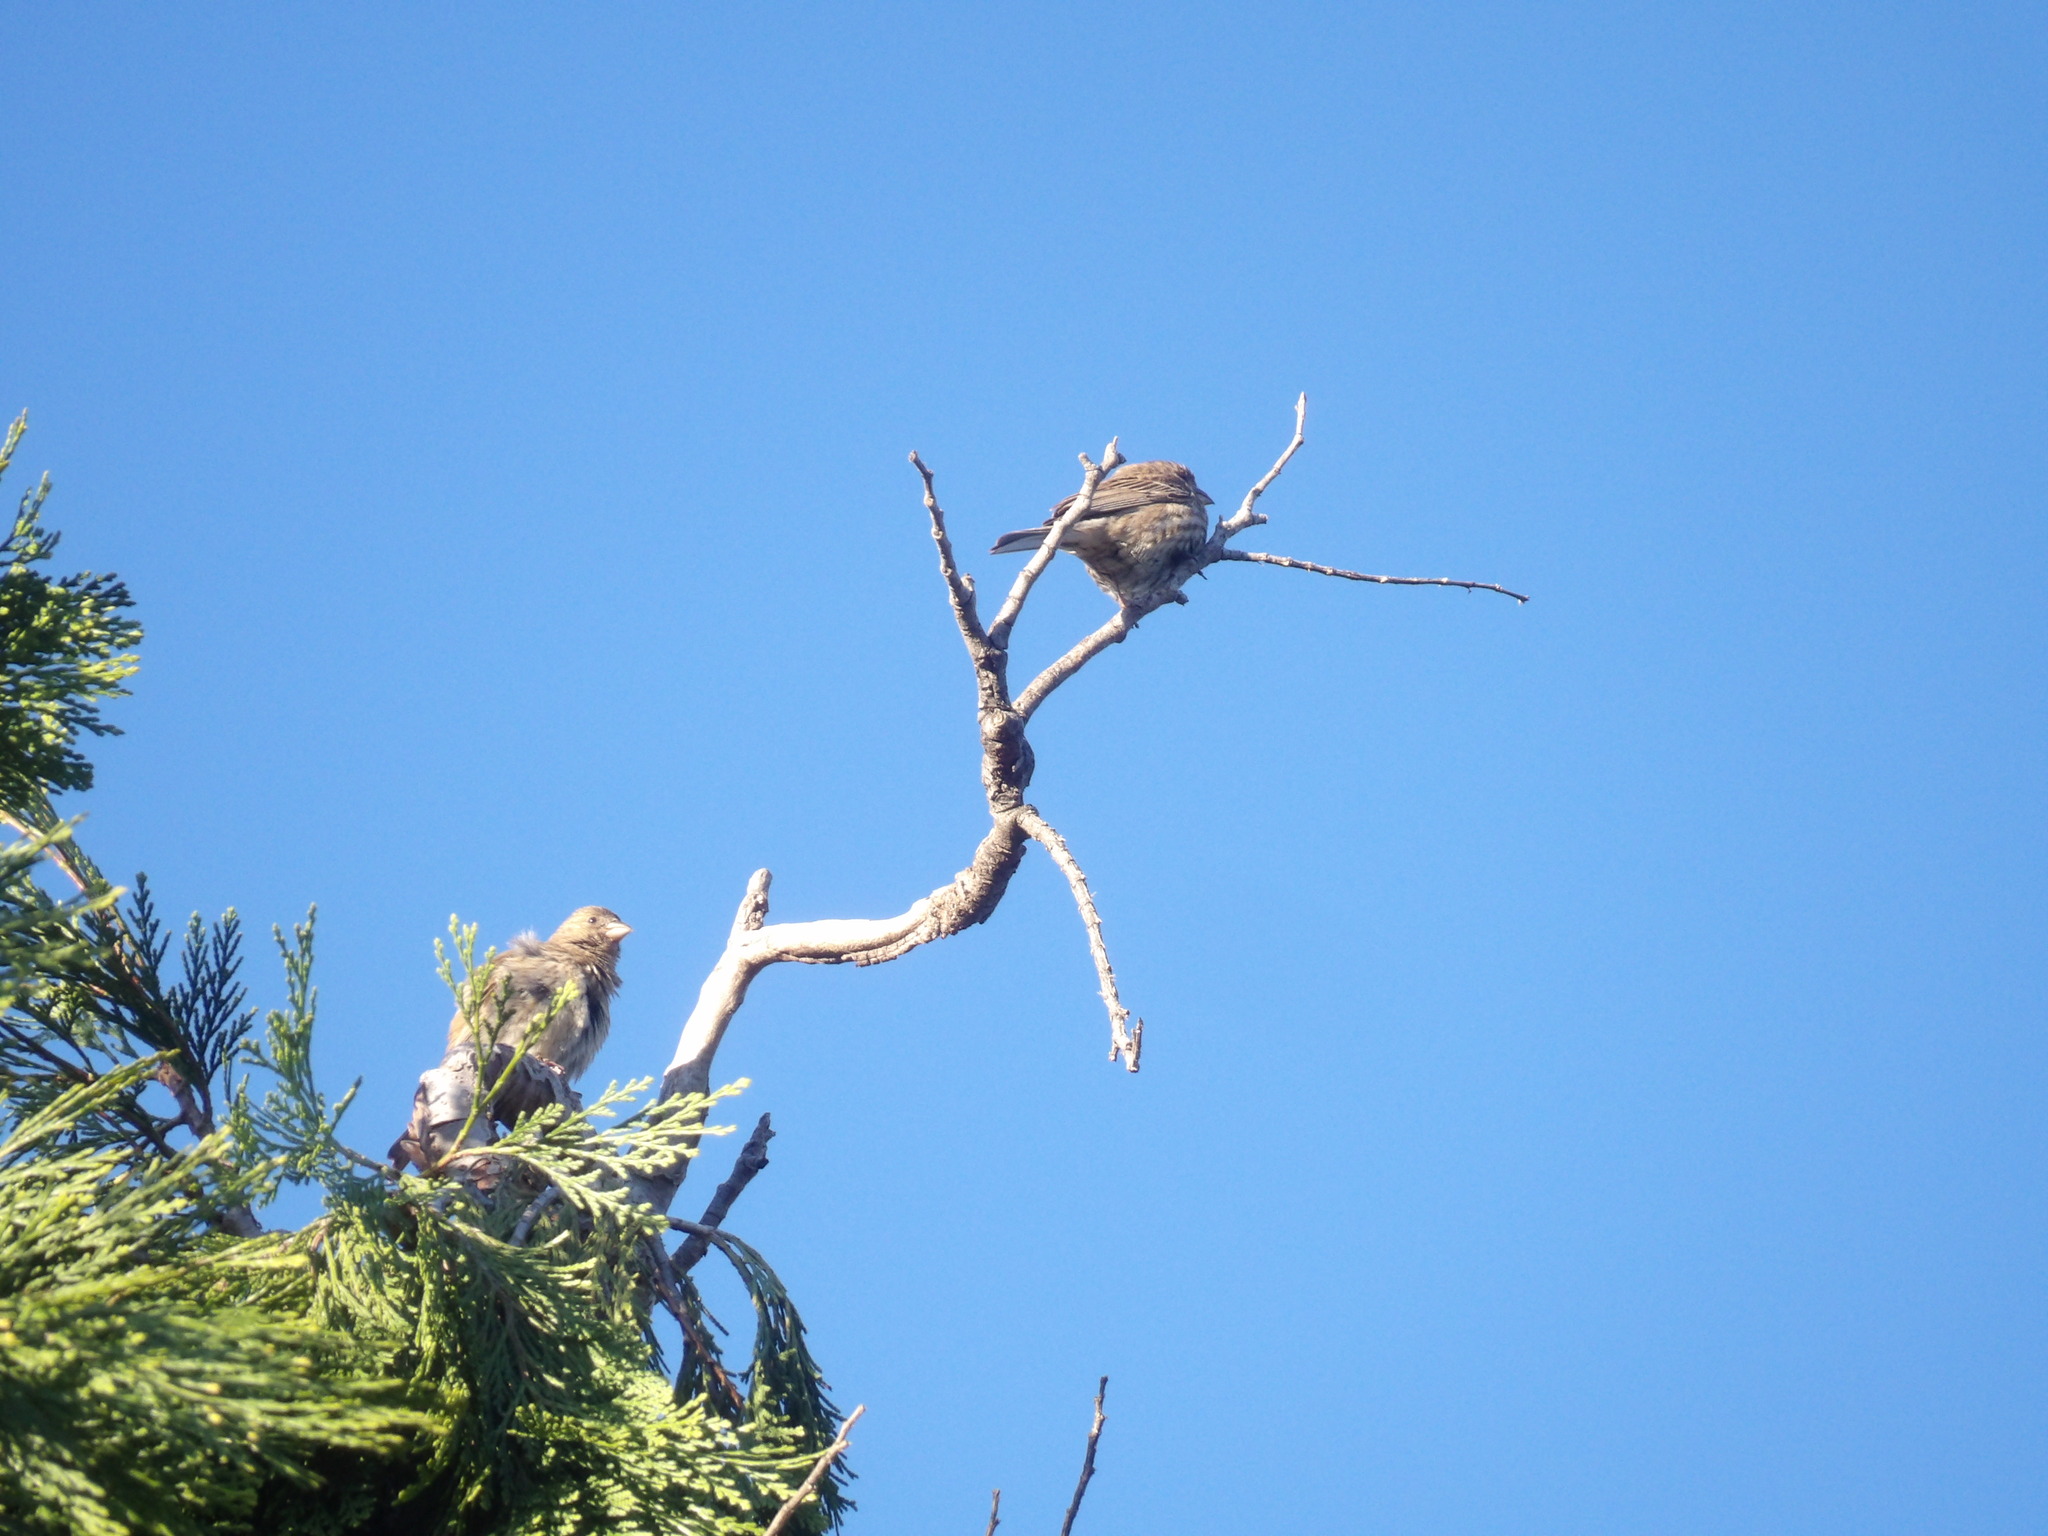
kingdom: Animalia
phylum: Chordata
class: Aves
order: Passeriformes
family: Fringillidae
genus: Haemorhous
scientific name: Haemorhous mexicanus
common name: House finch
